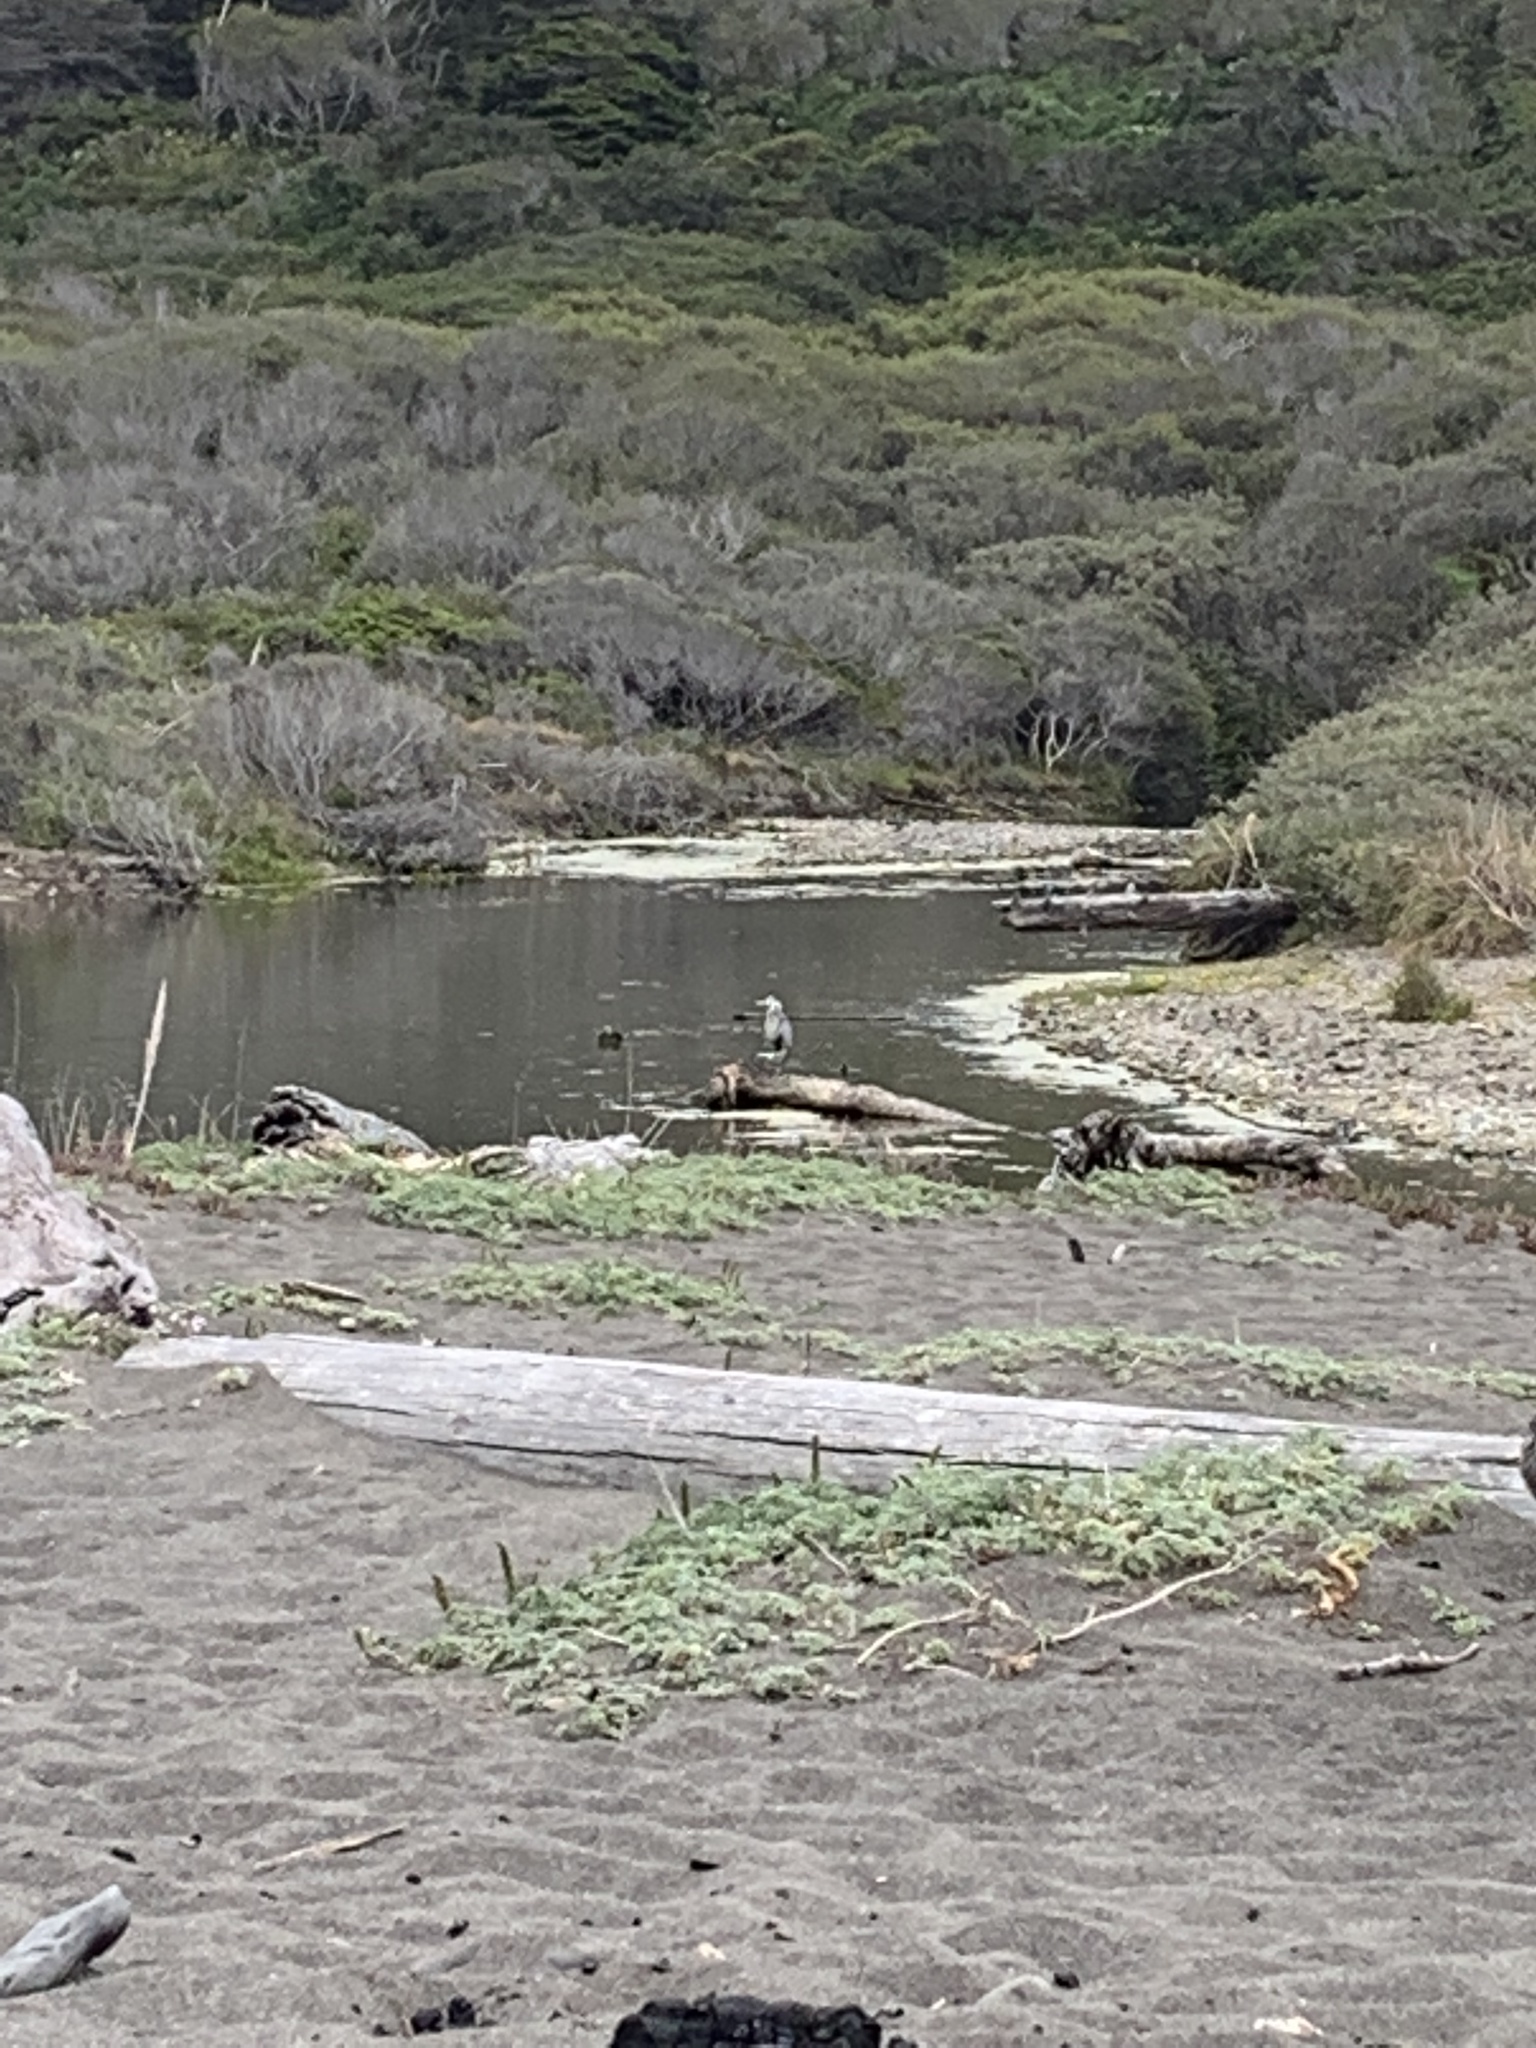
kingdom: Animalia
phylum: Chordata
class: Aves
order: Pelecaniformes
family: Ardeidae
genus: Ardea
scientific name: Ardea herodias
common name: Great blue heron
